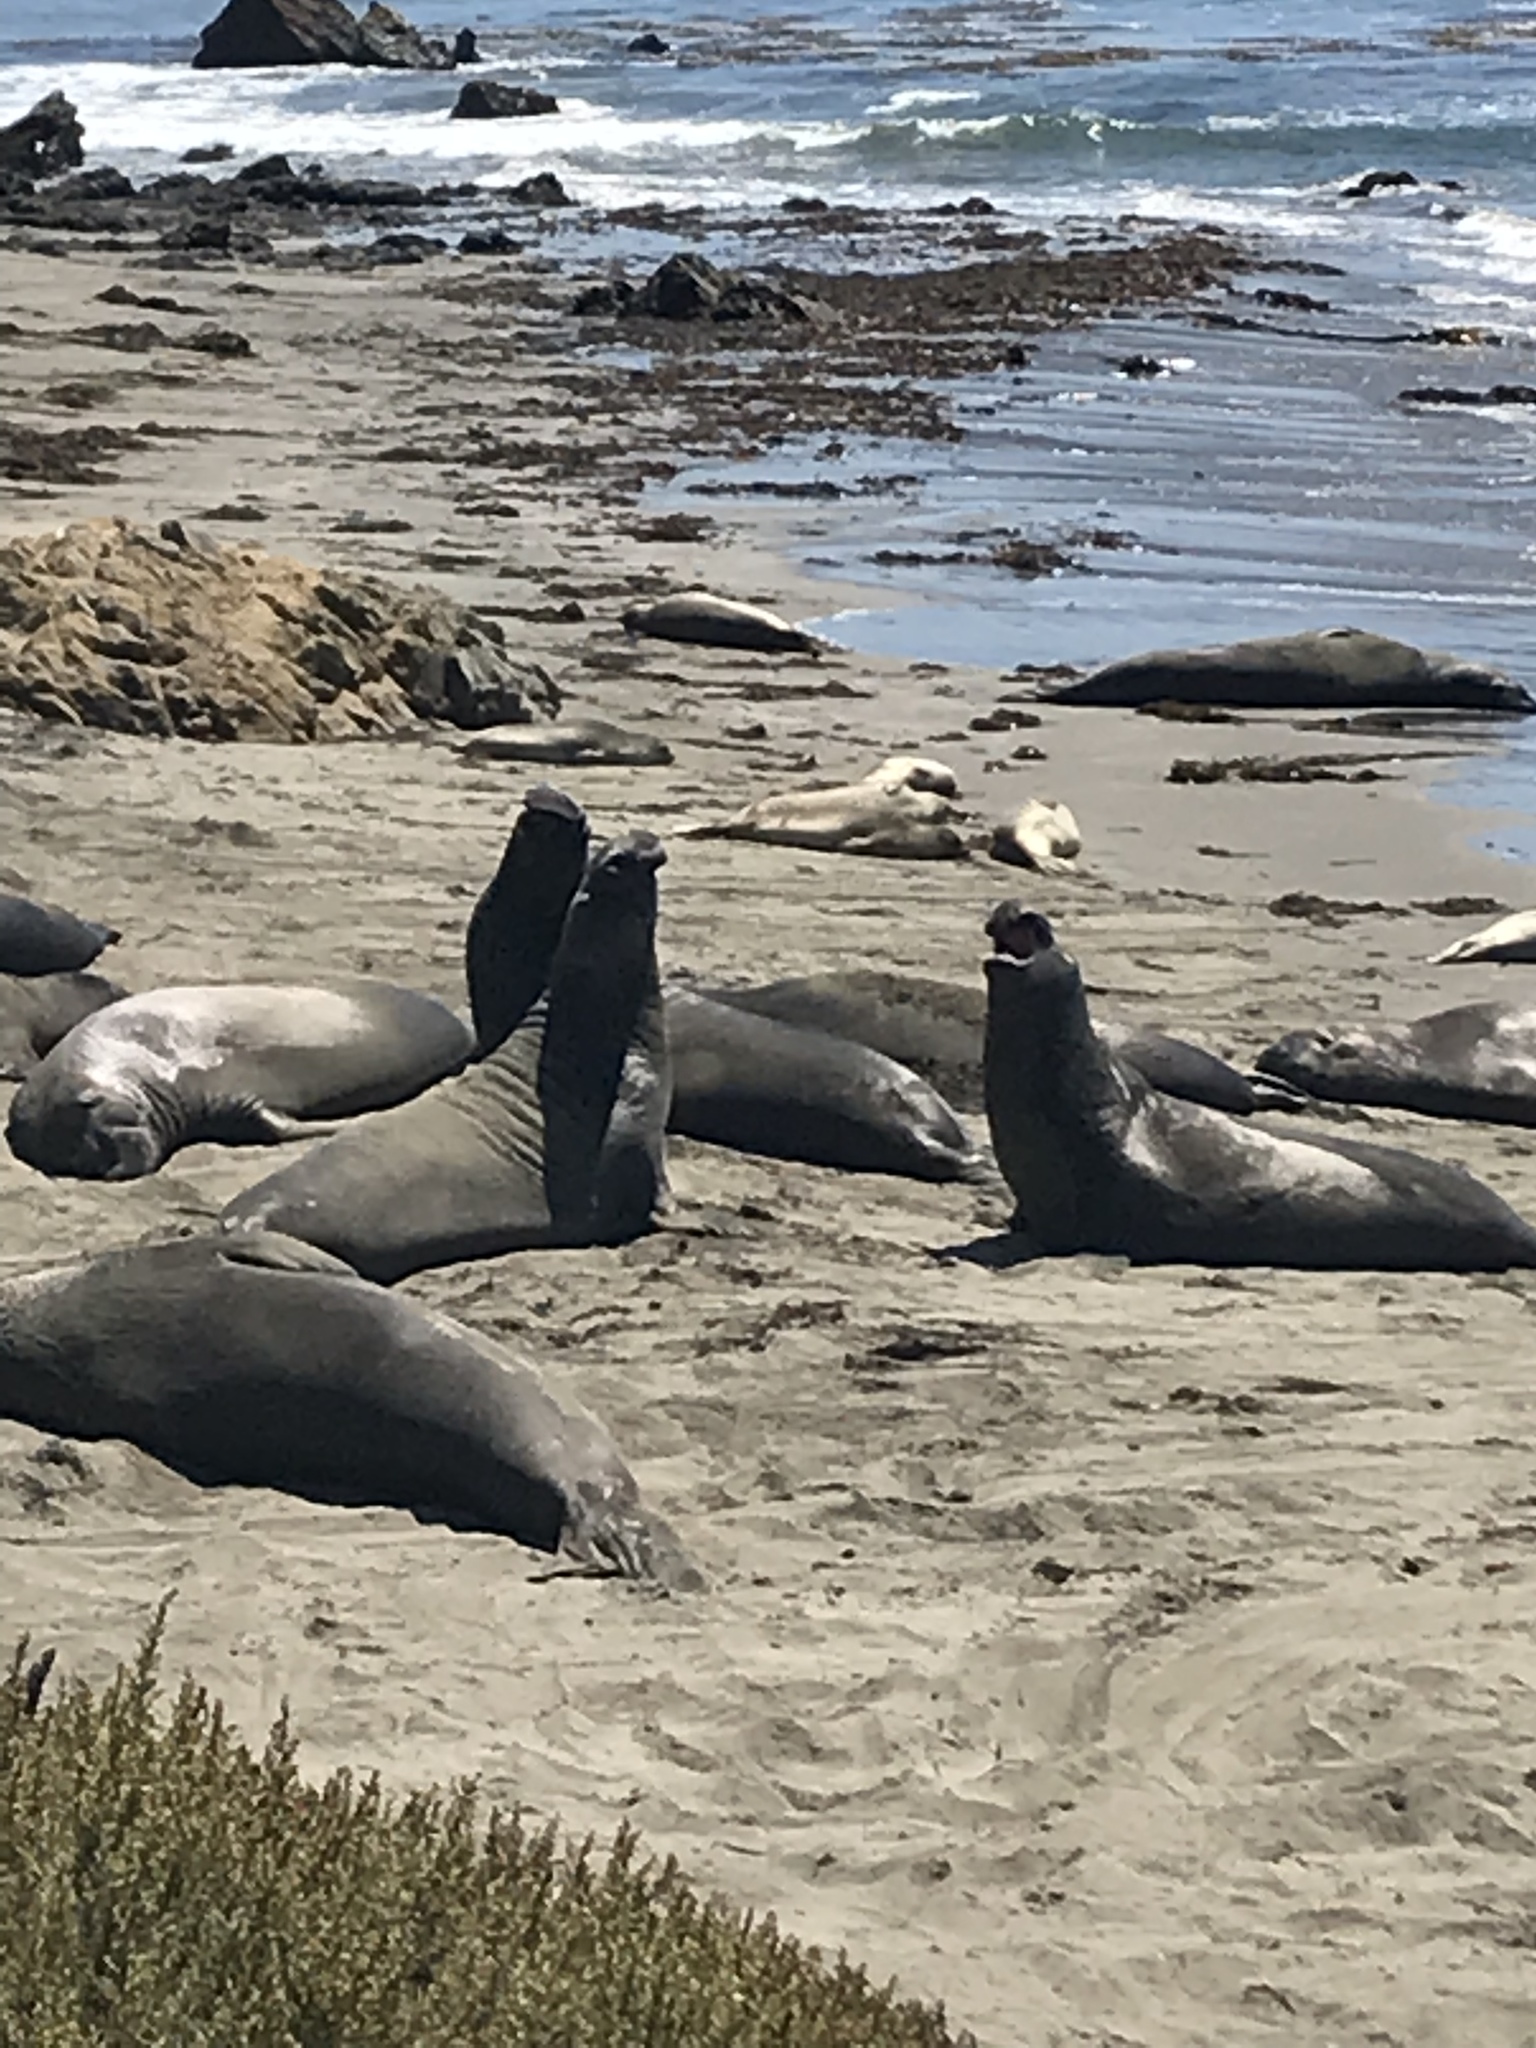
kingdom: Animalia
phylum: Chordata
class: Mammalia
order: Carnivora
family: Phocidae
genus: Mirounga
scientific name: Mirounga angustirostris
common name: Northern elephant seal
